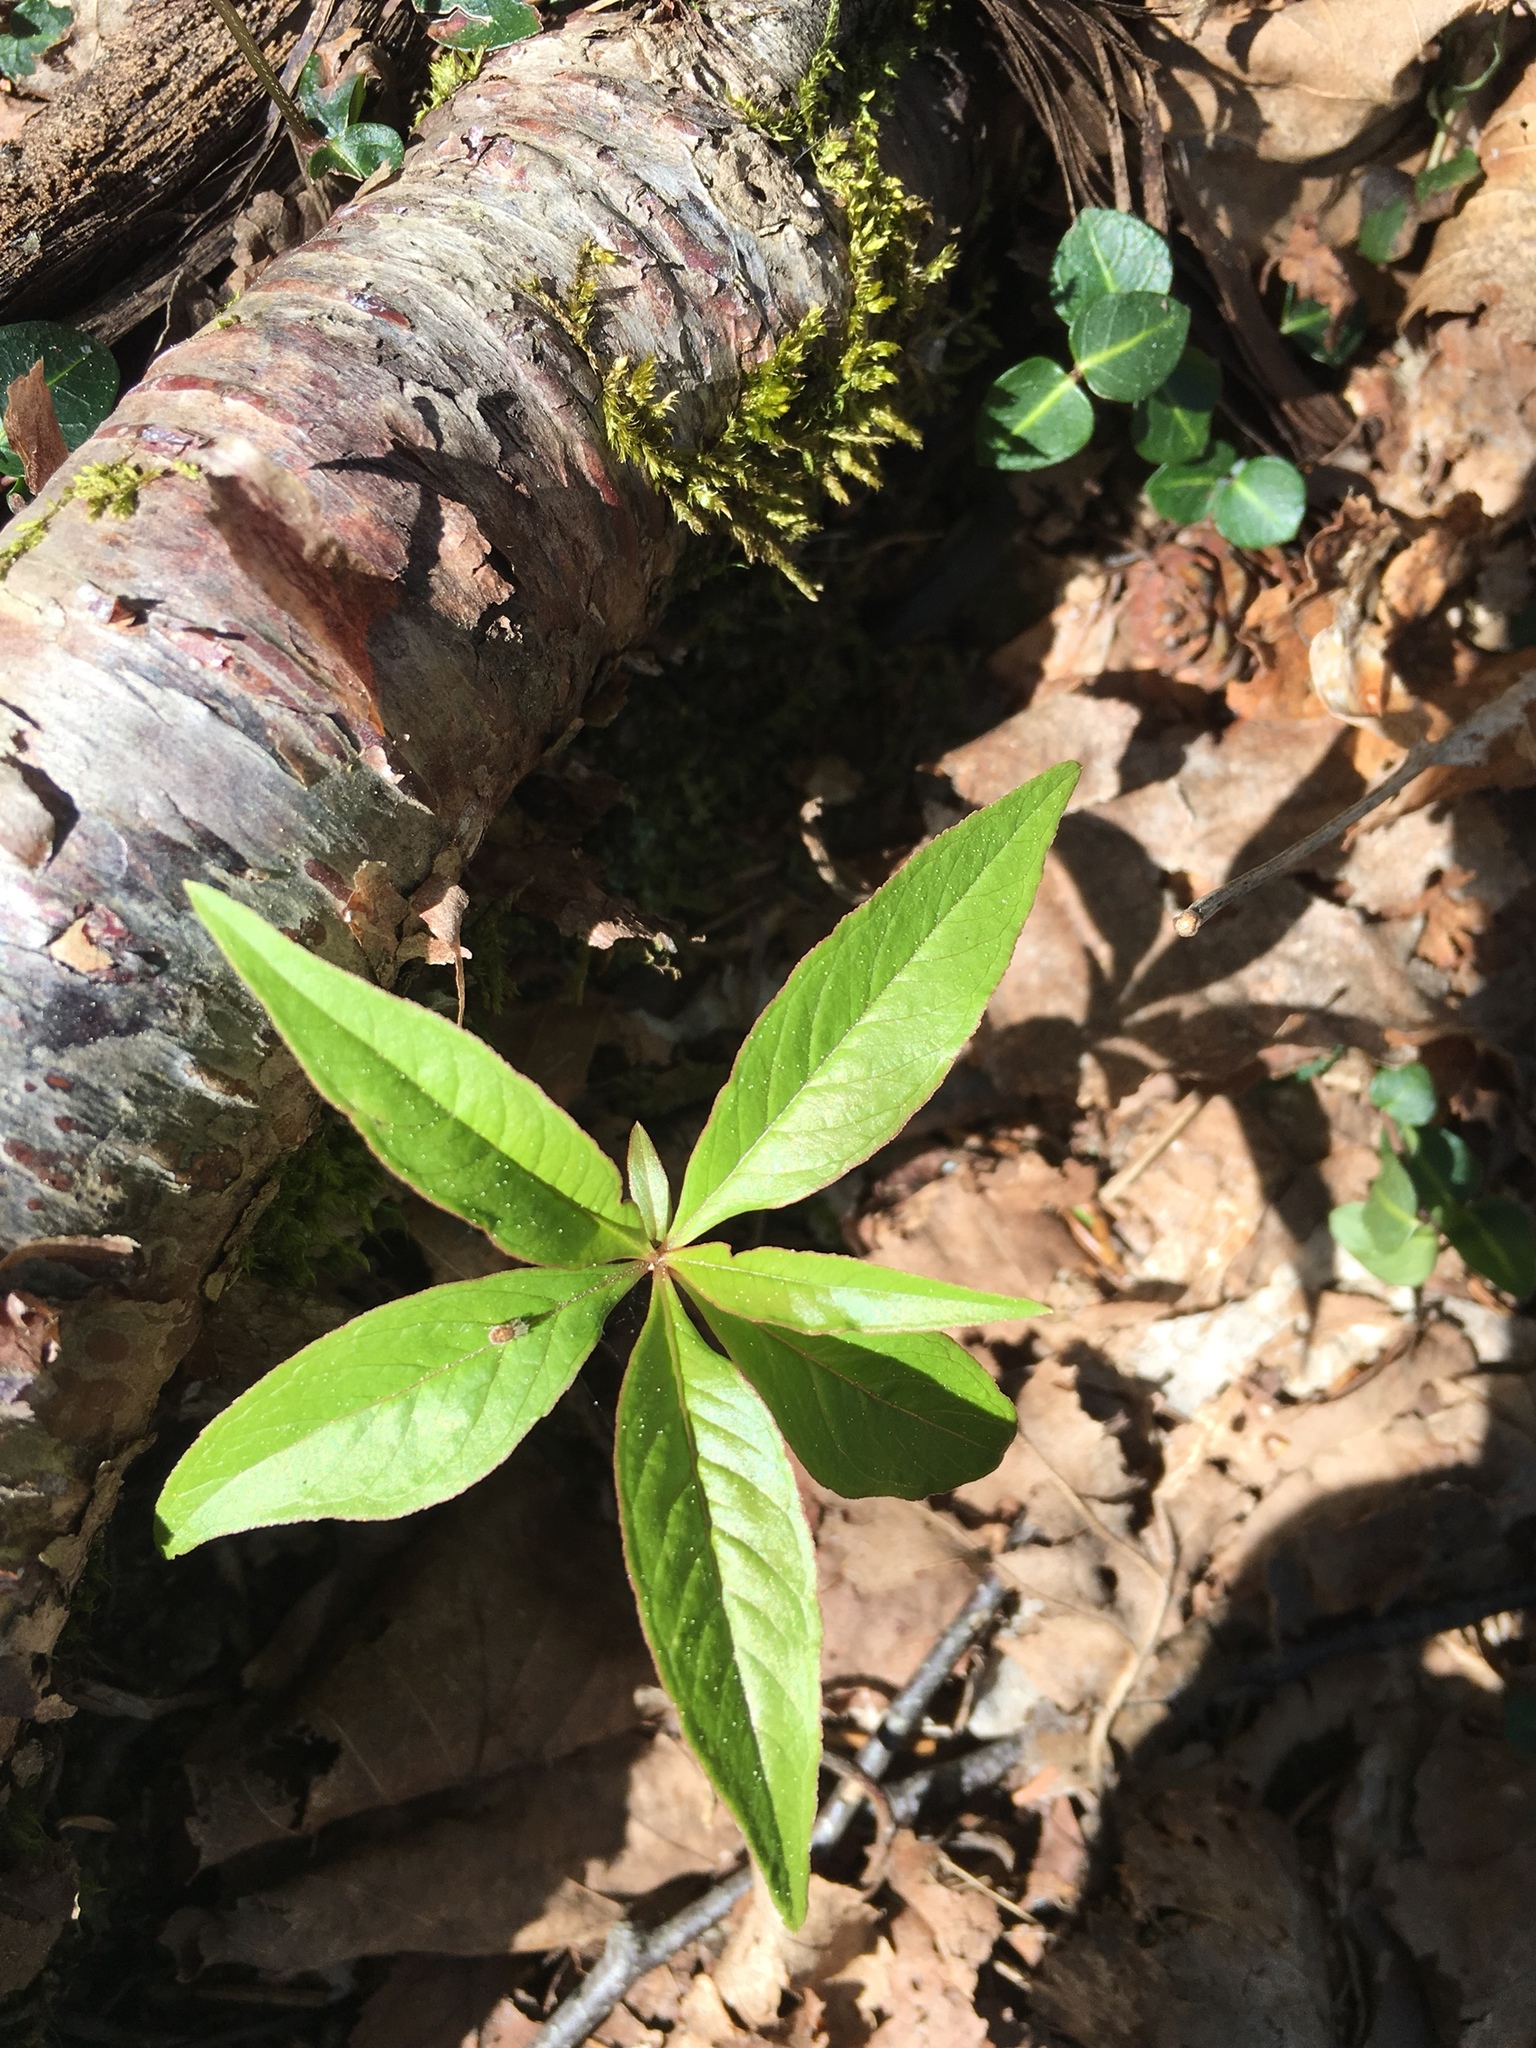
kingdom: Plantae
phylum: Tracheophyta
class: Magnoliopsida
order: Ericales
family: Primulaceae
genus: Lysimachia
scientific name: Lysimachia borealis
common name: American starflower
